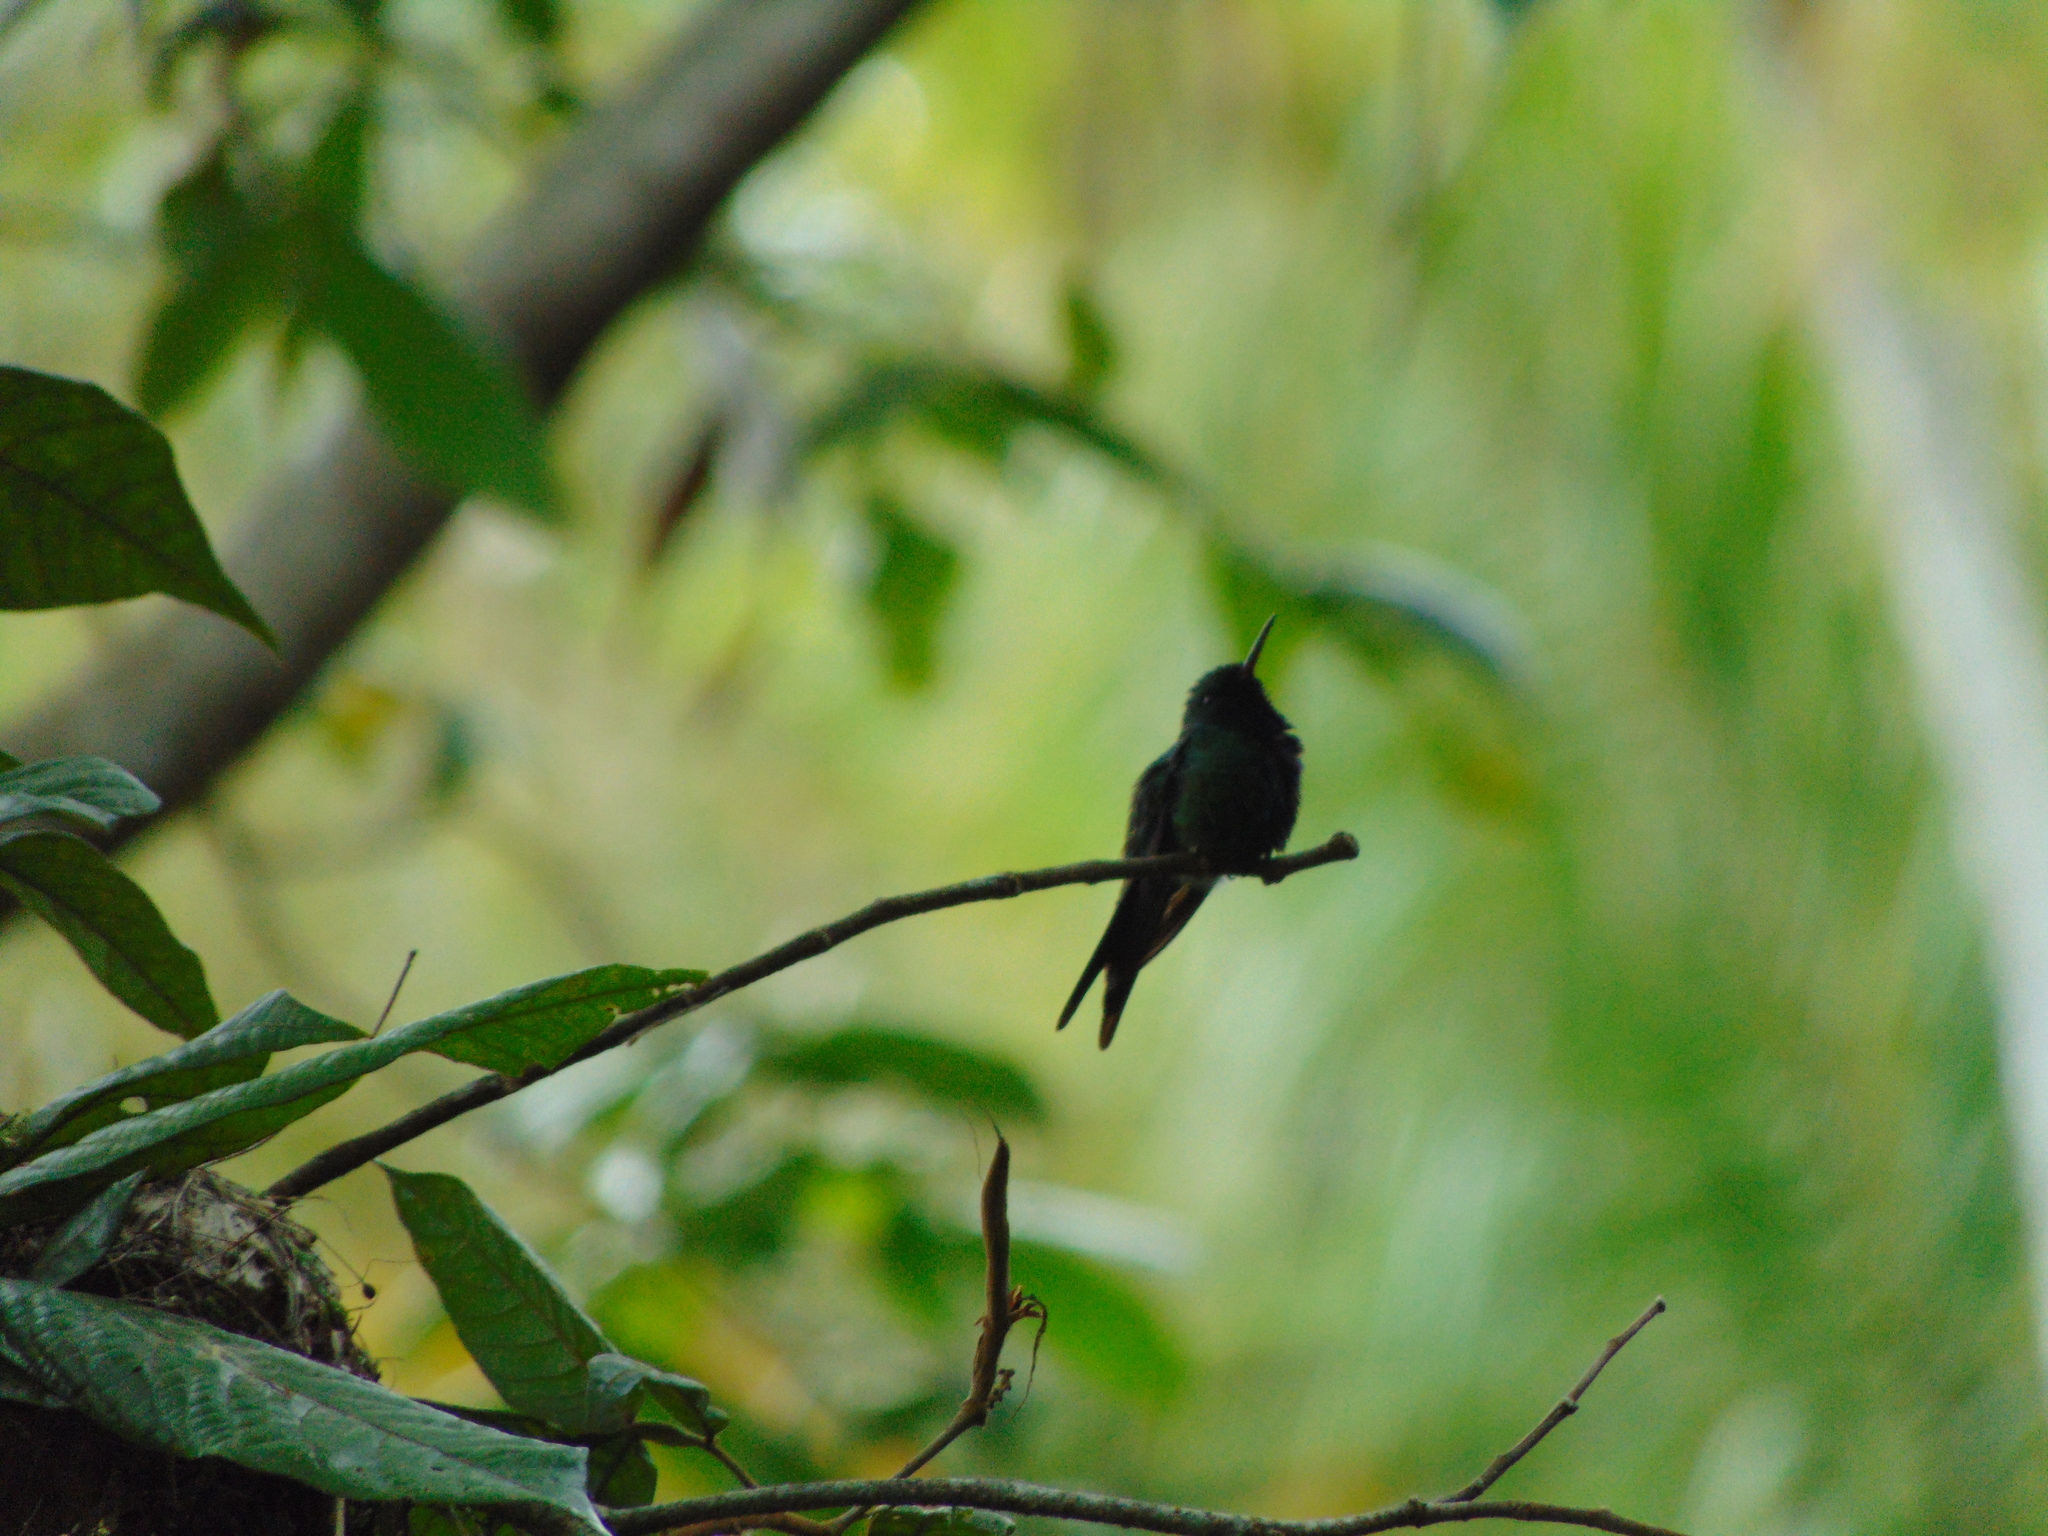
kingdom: Animalia
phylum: Chordata
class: Aves
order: Apodiformes
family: Trochilidae
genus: Riccordia
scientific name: Riccordia maugaeus
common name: Puerto rican emerald
